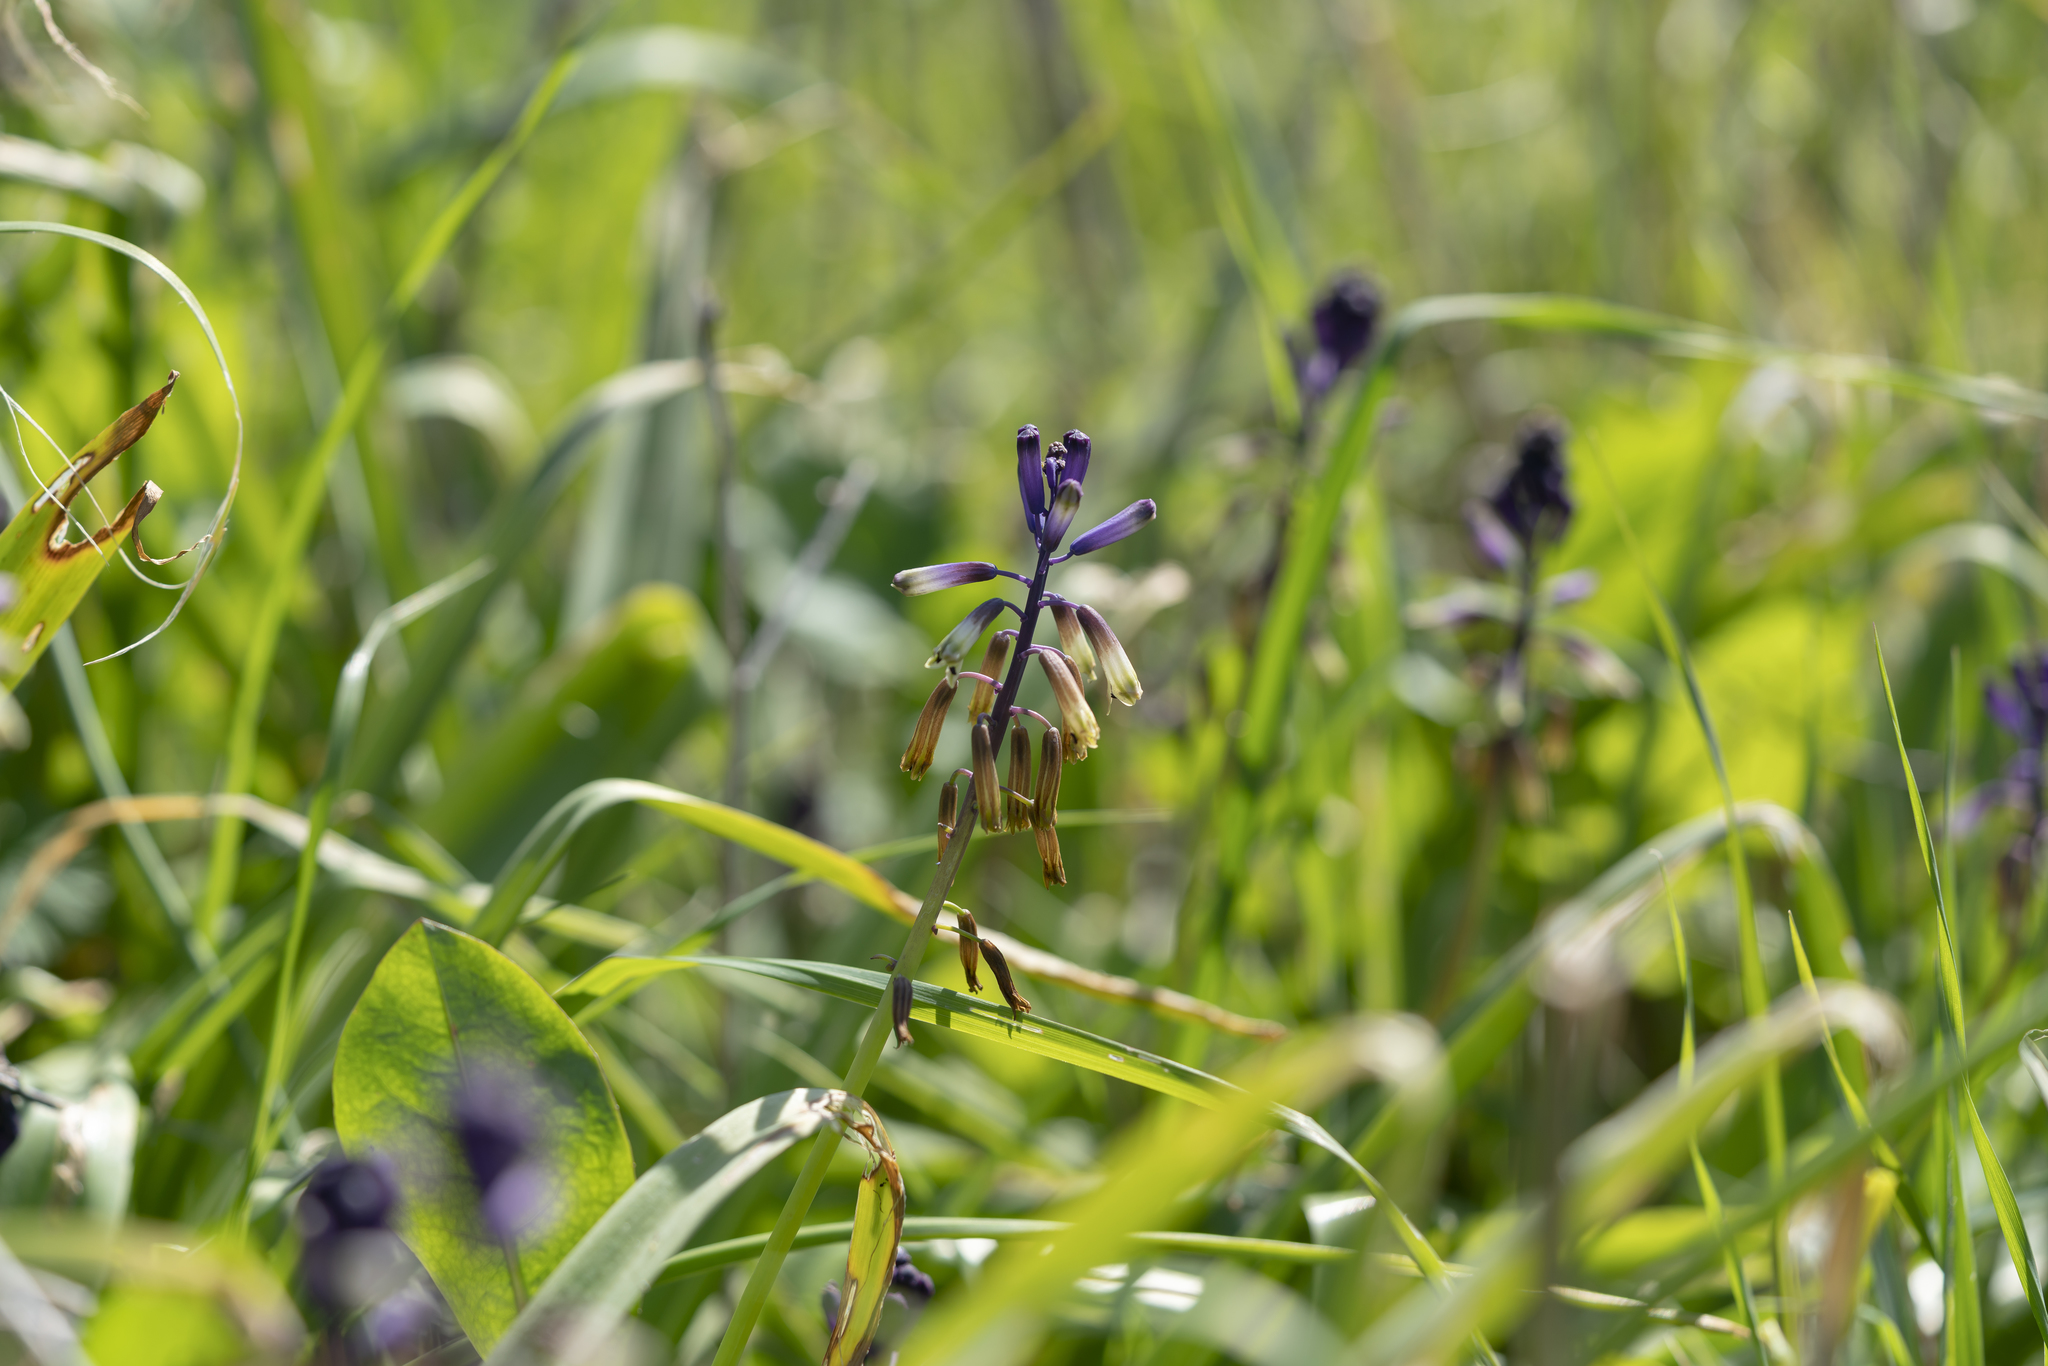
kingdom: Plantae
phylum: Tracheophyta
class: Liliopsida
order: Asparagales
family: Asparagaceae
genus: Bellevalia
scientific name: Bellevalia trifoliata
